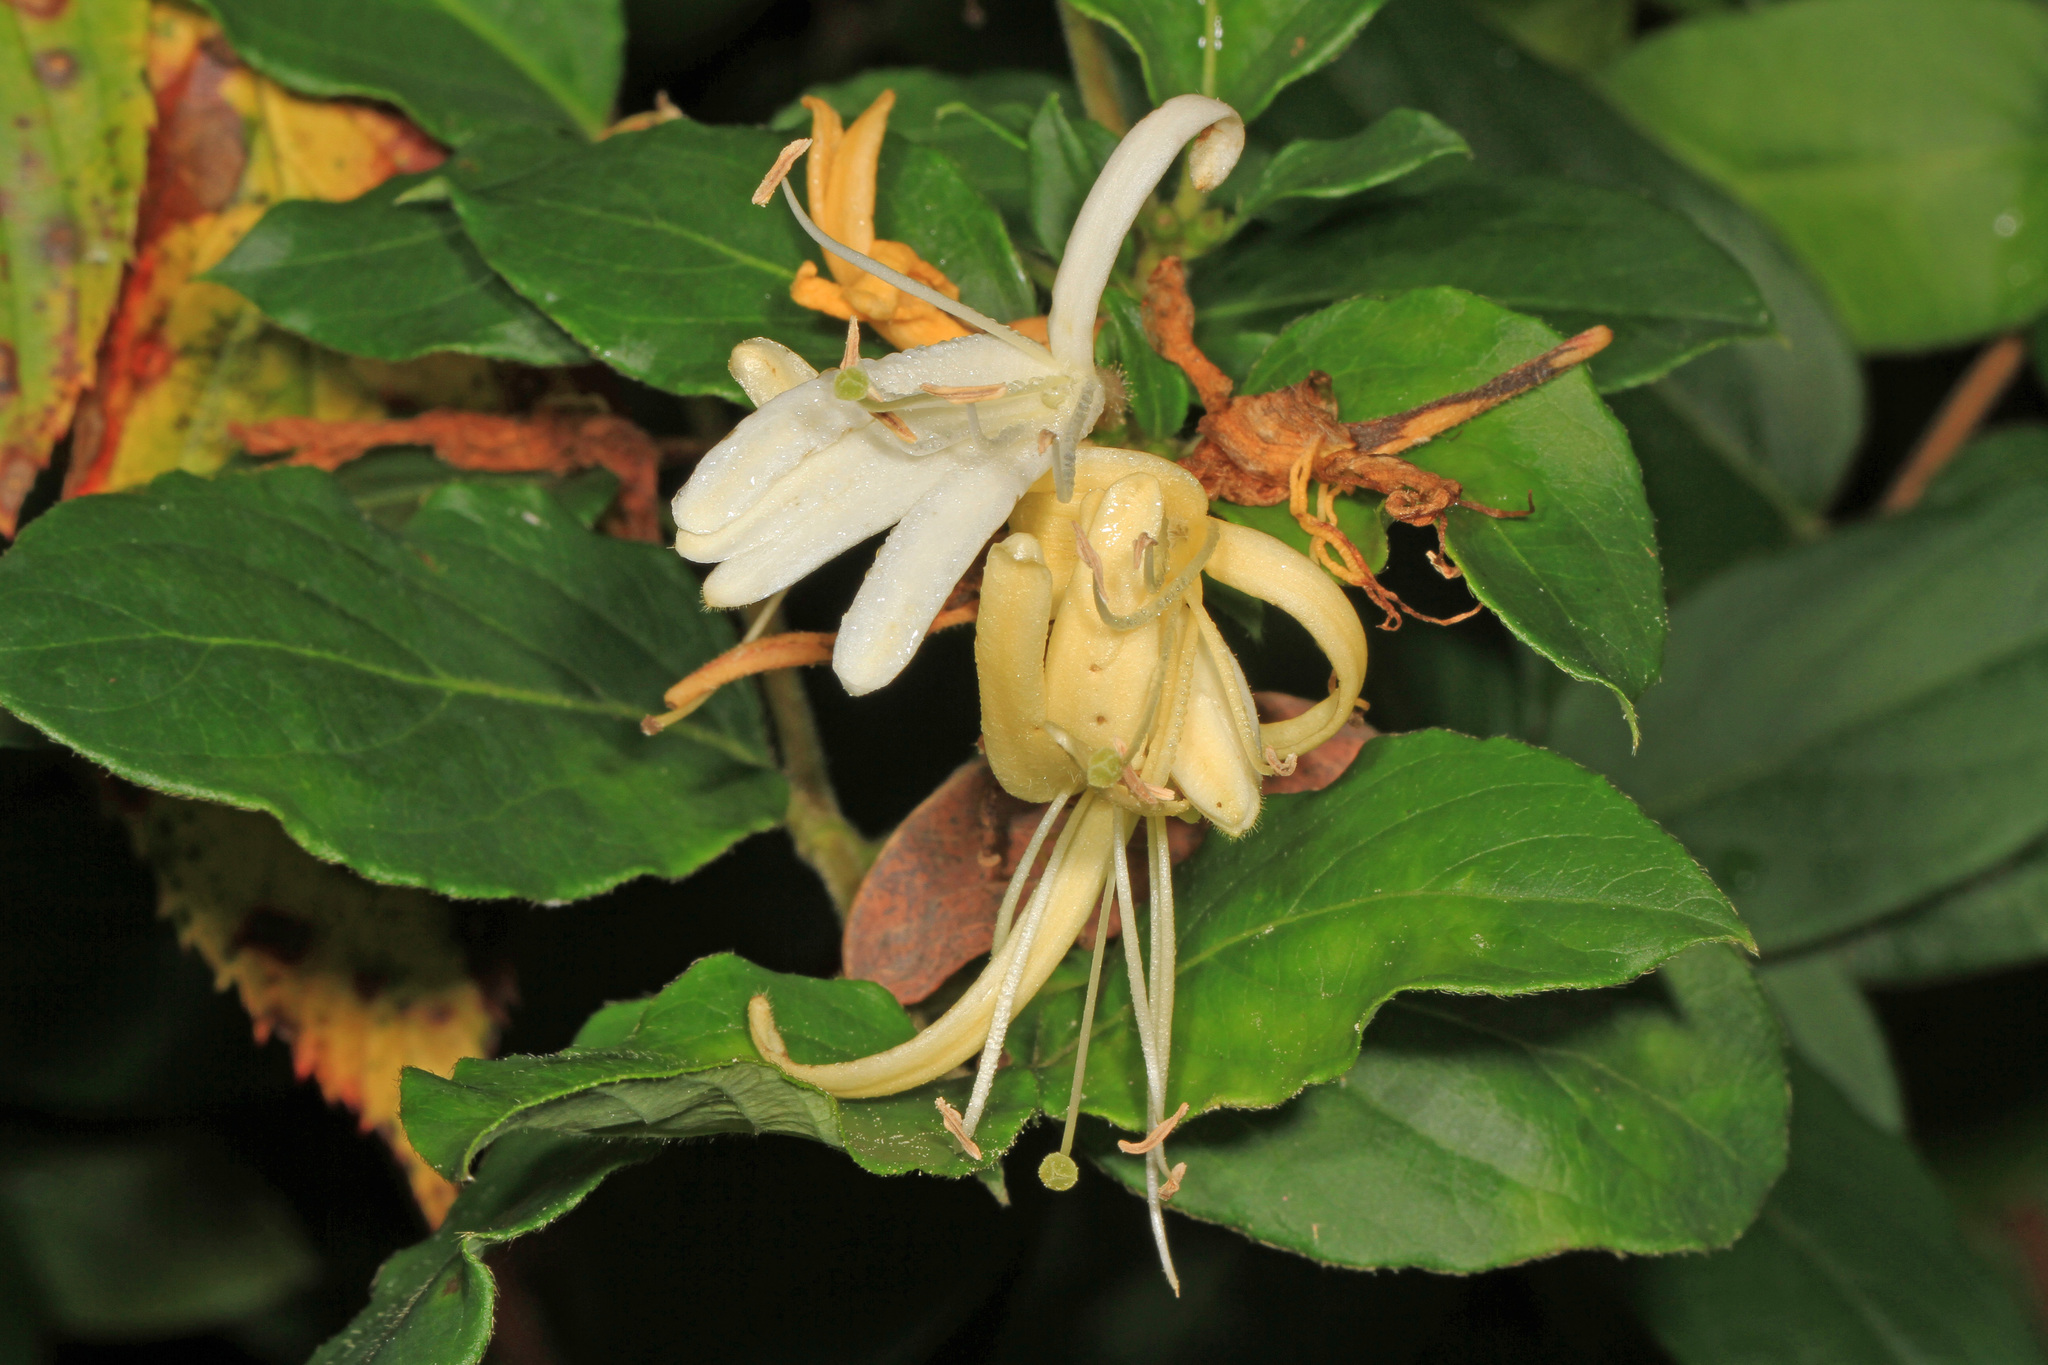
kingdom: Plantae
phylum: Tracheophyta
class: Magnoliopsida
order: Dipsacales
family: Caprifoliaceae
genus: Lonicera
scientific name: Lonicera japonica
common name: Japanese honeysuckle
